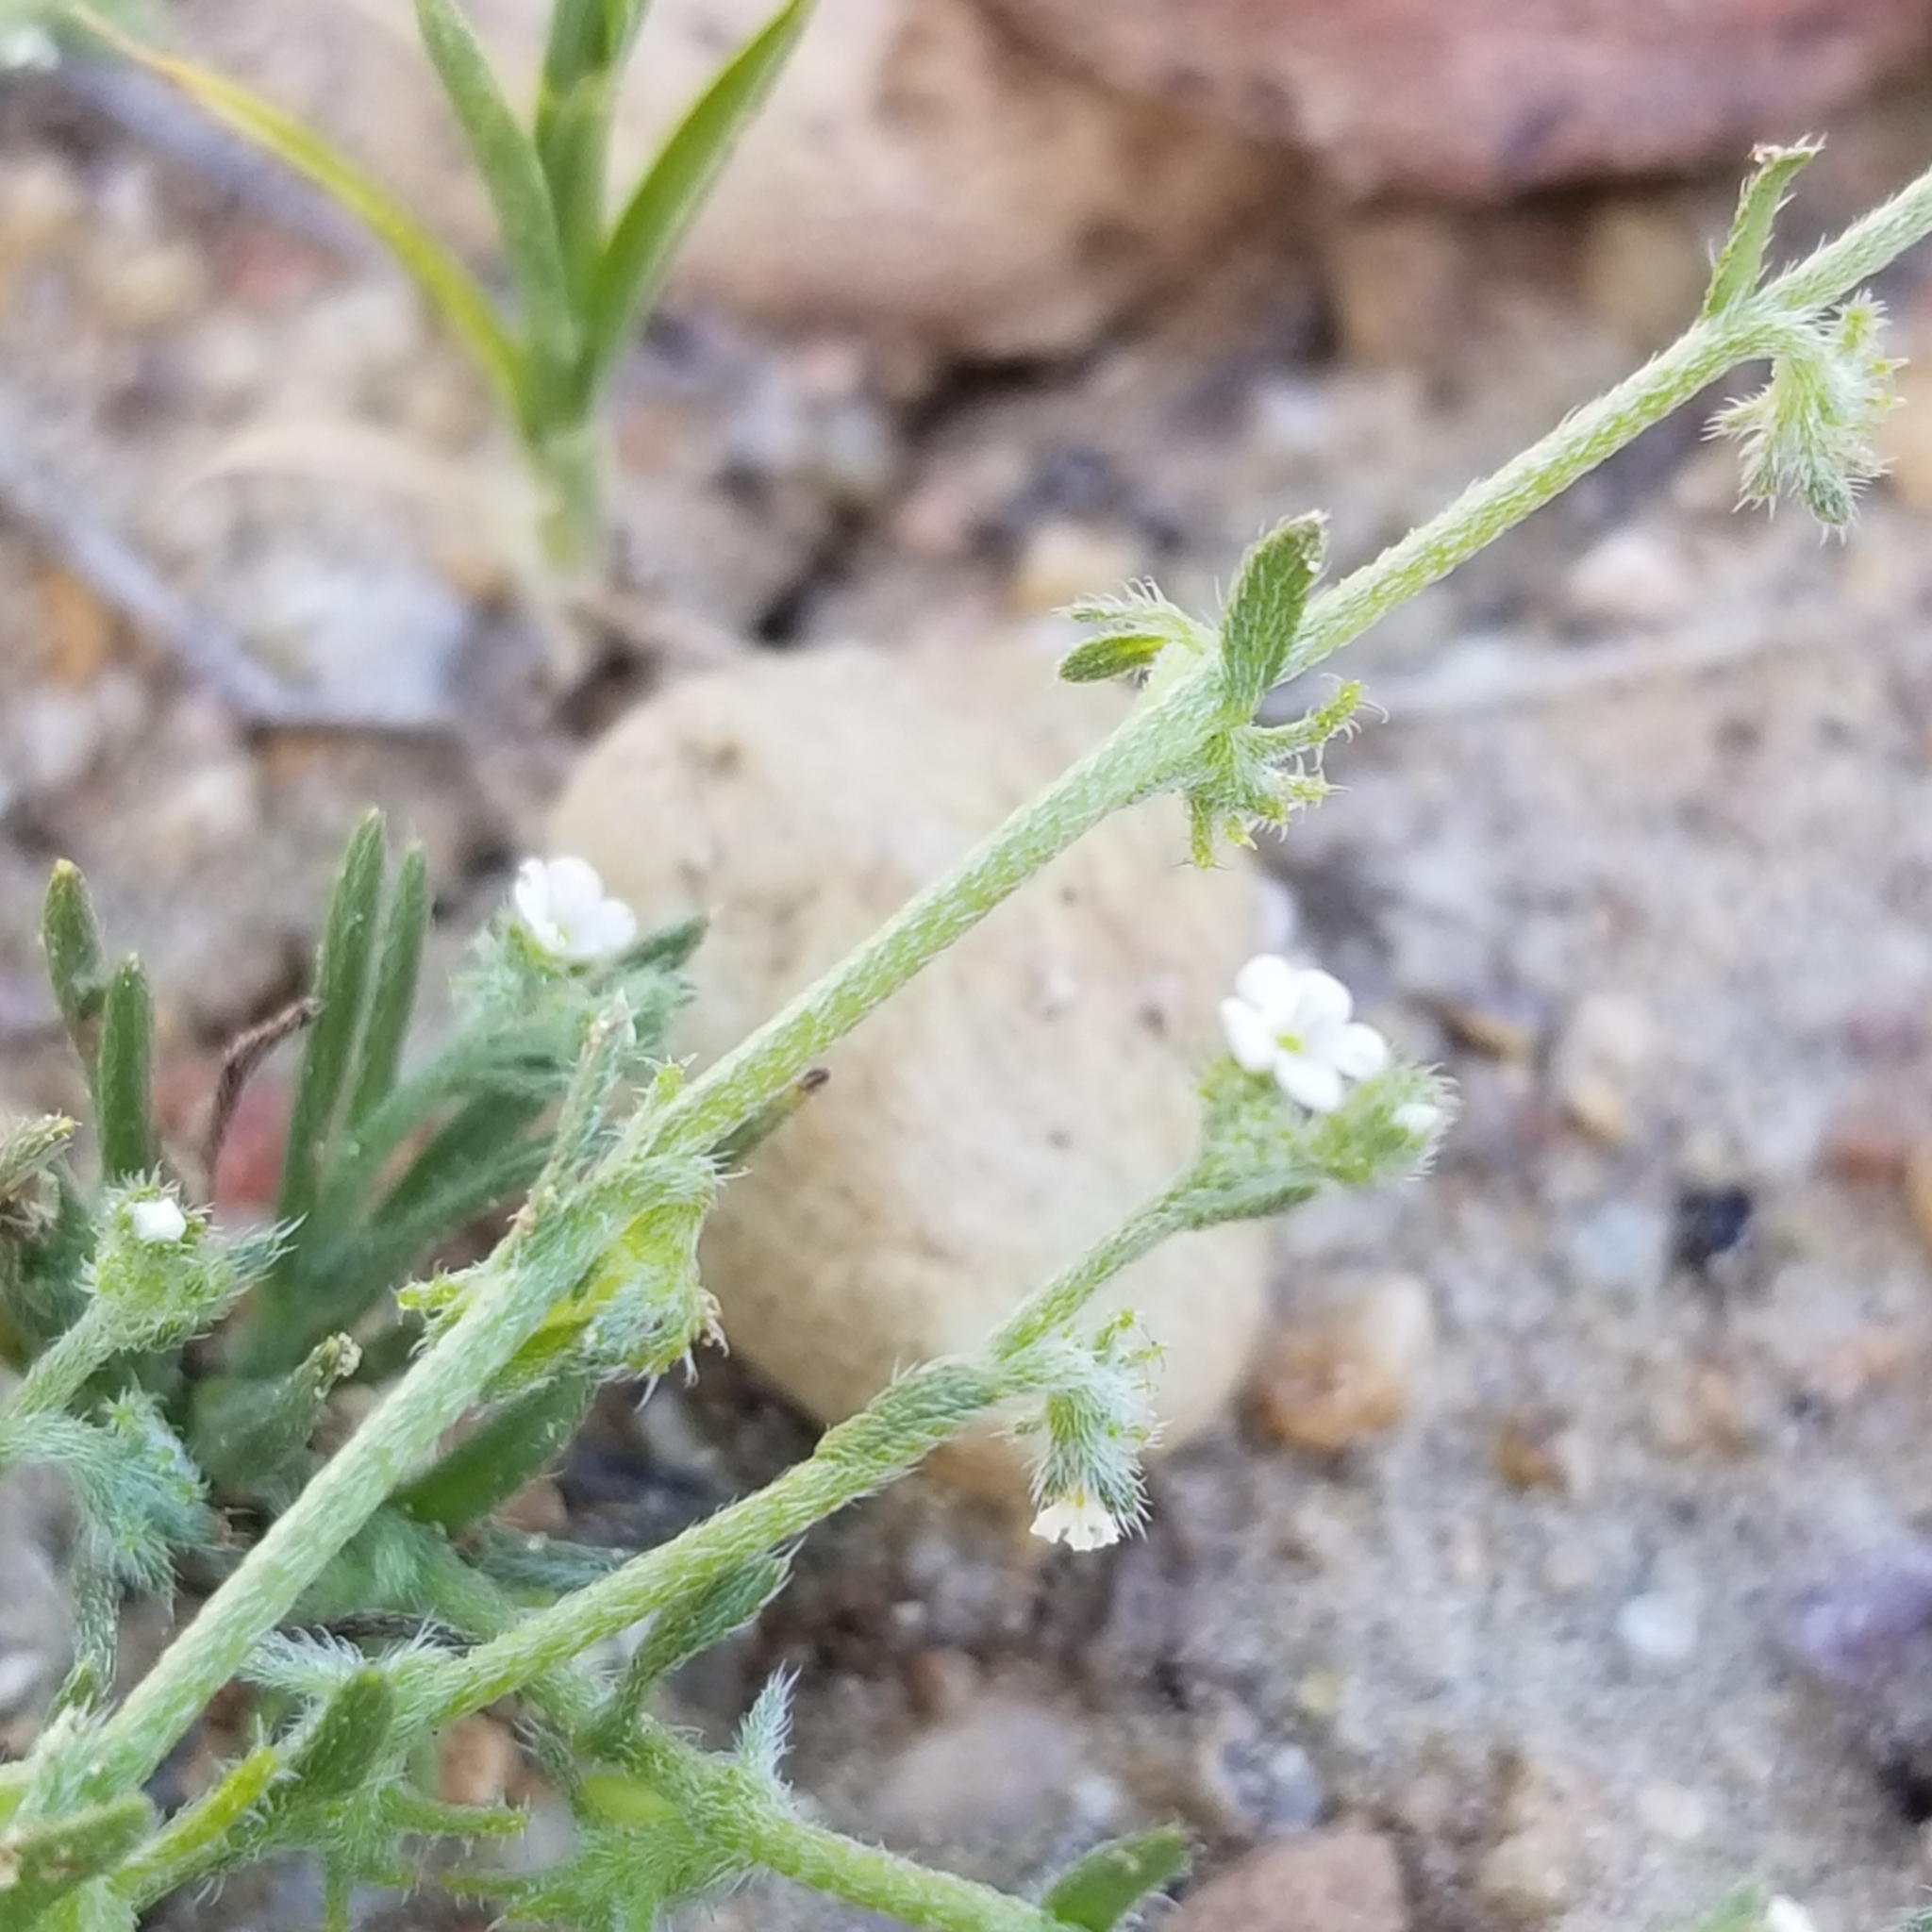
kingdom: Plantae
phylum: Tracheophyta
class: Magnoliopsida
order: Boraginales
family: Boraginaceae
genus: Harpagonella
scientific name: Harpagonella palmeri
